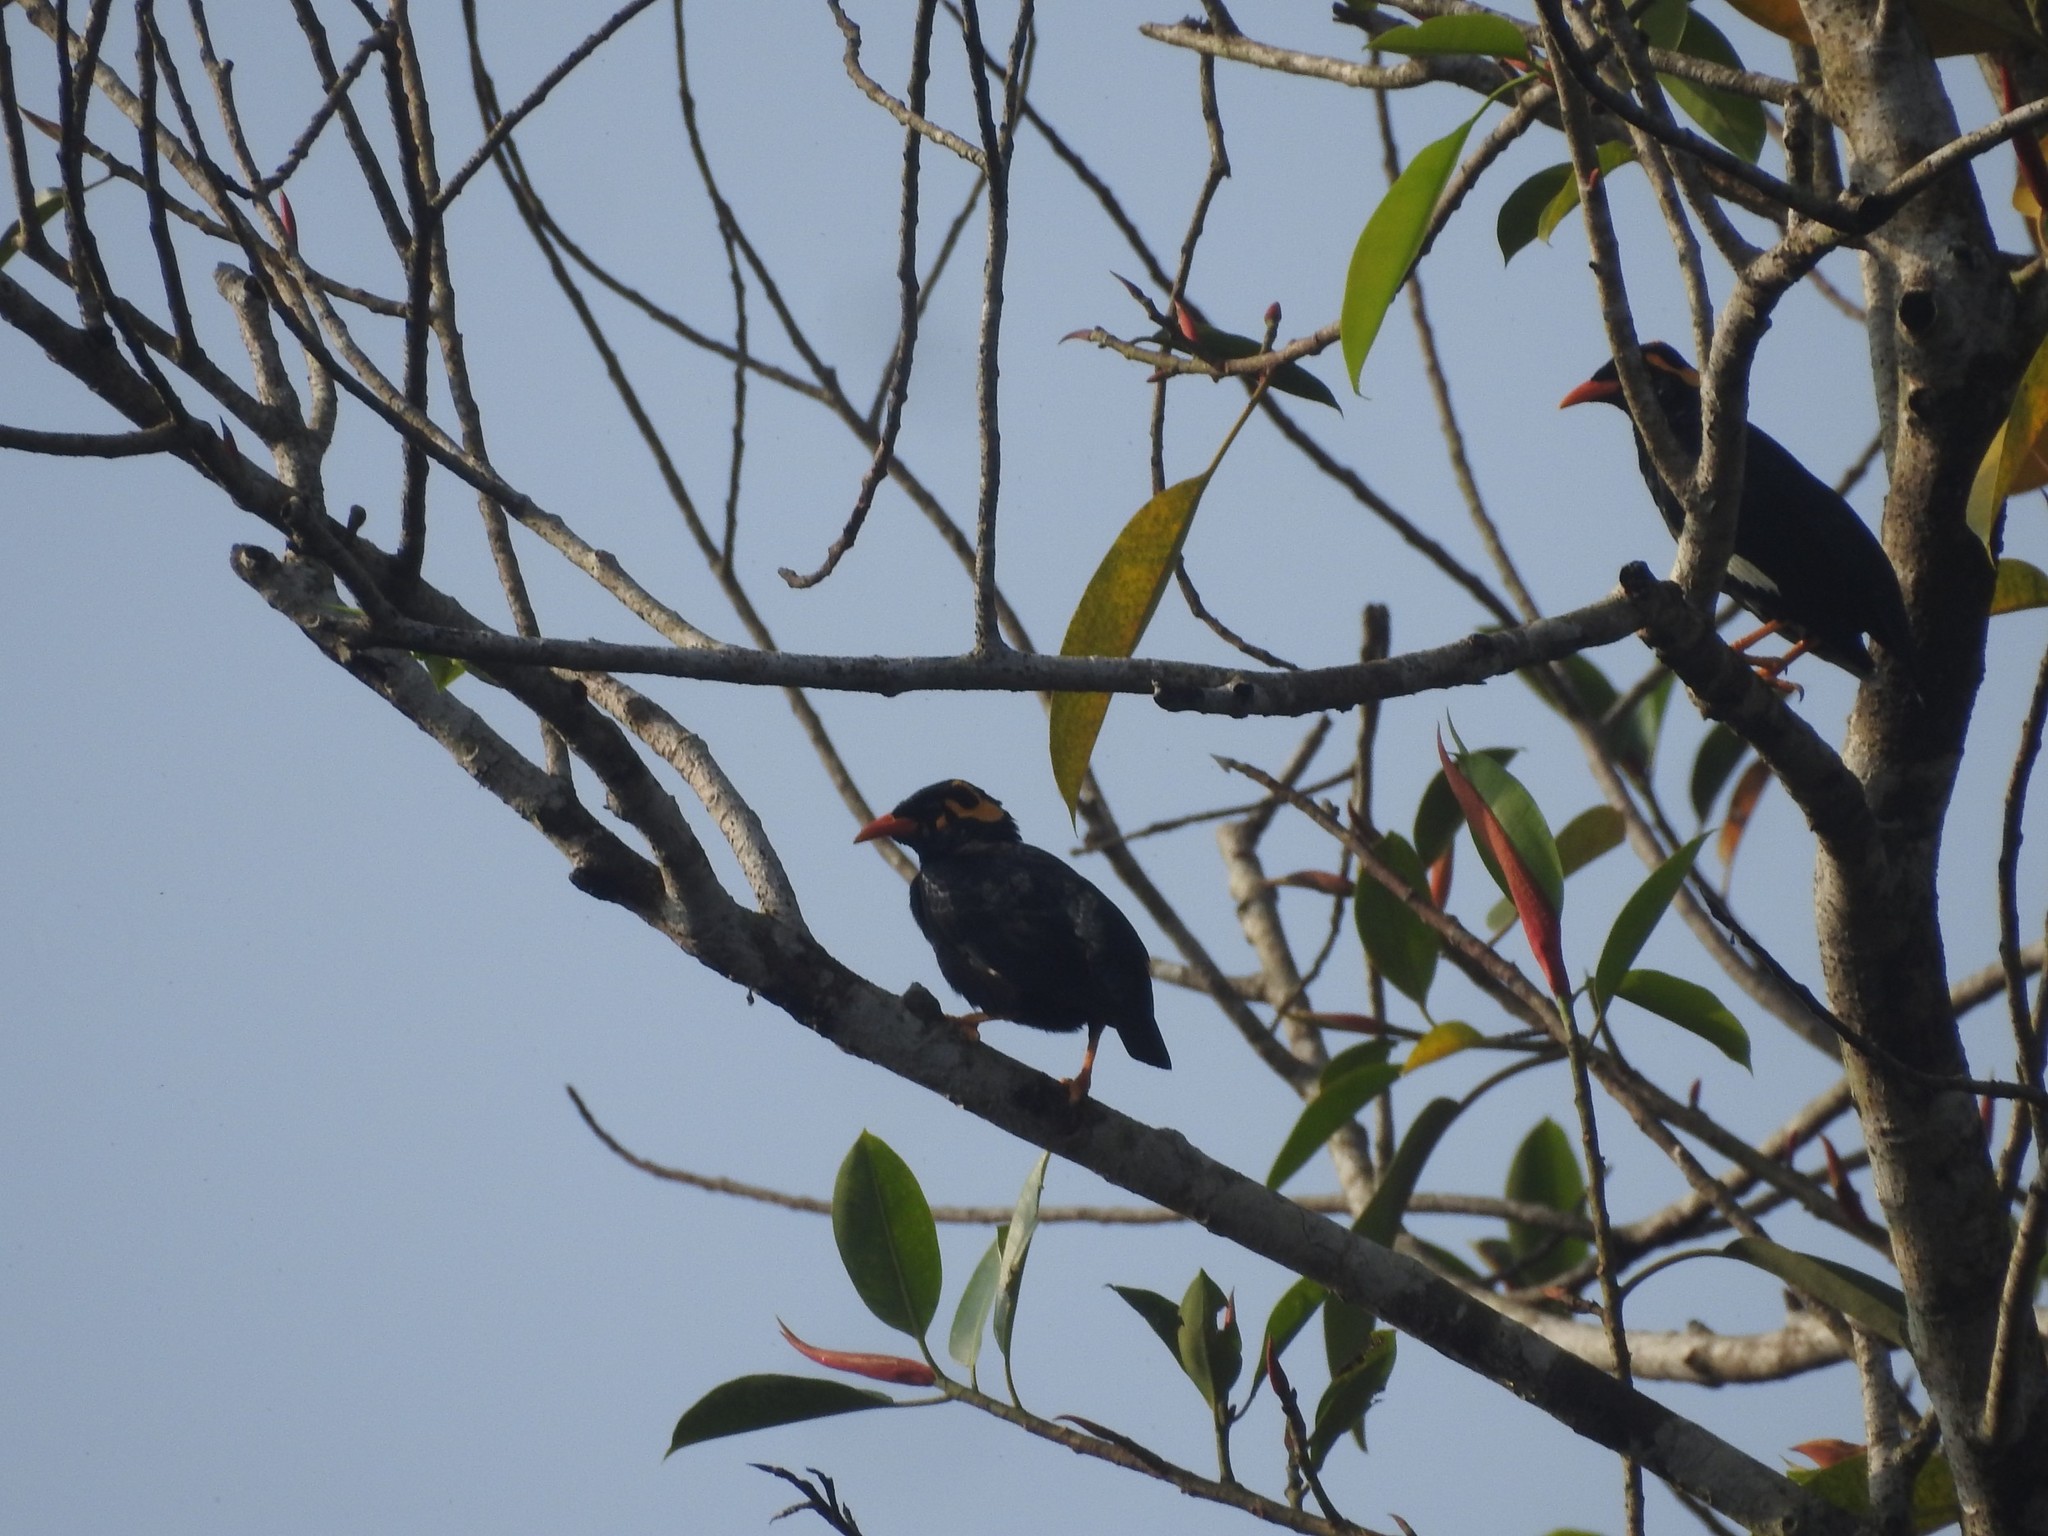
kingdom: Animalia
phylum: Chordata
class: Aves
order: Passeriformes
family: Sturnidae
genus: Gracula
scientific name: Gracula indica
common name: Southern hill myna
